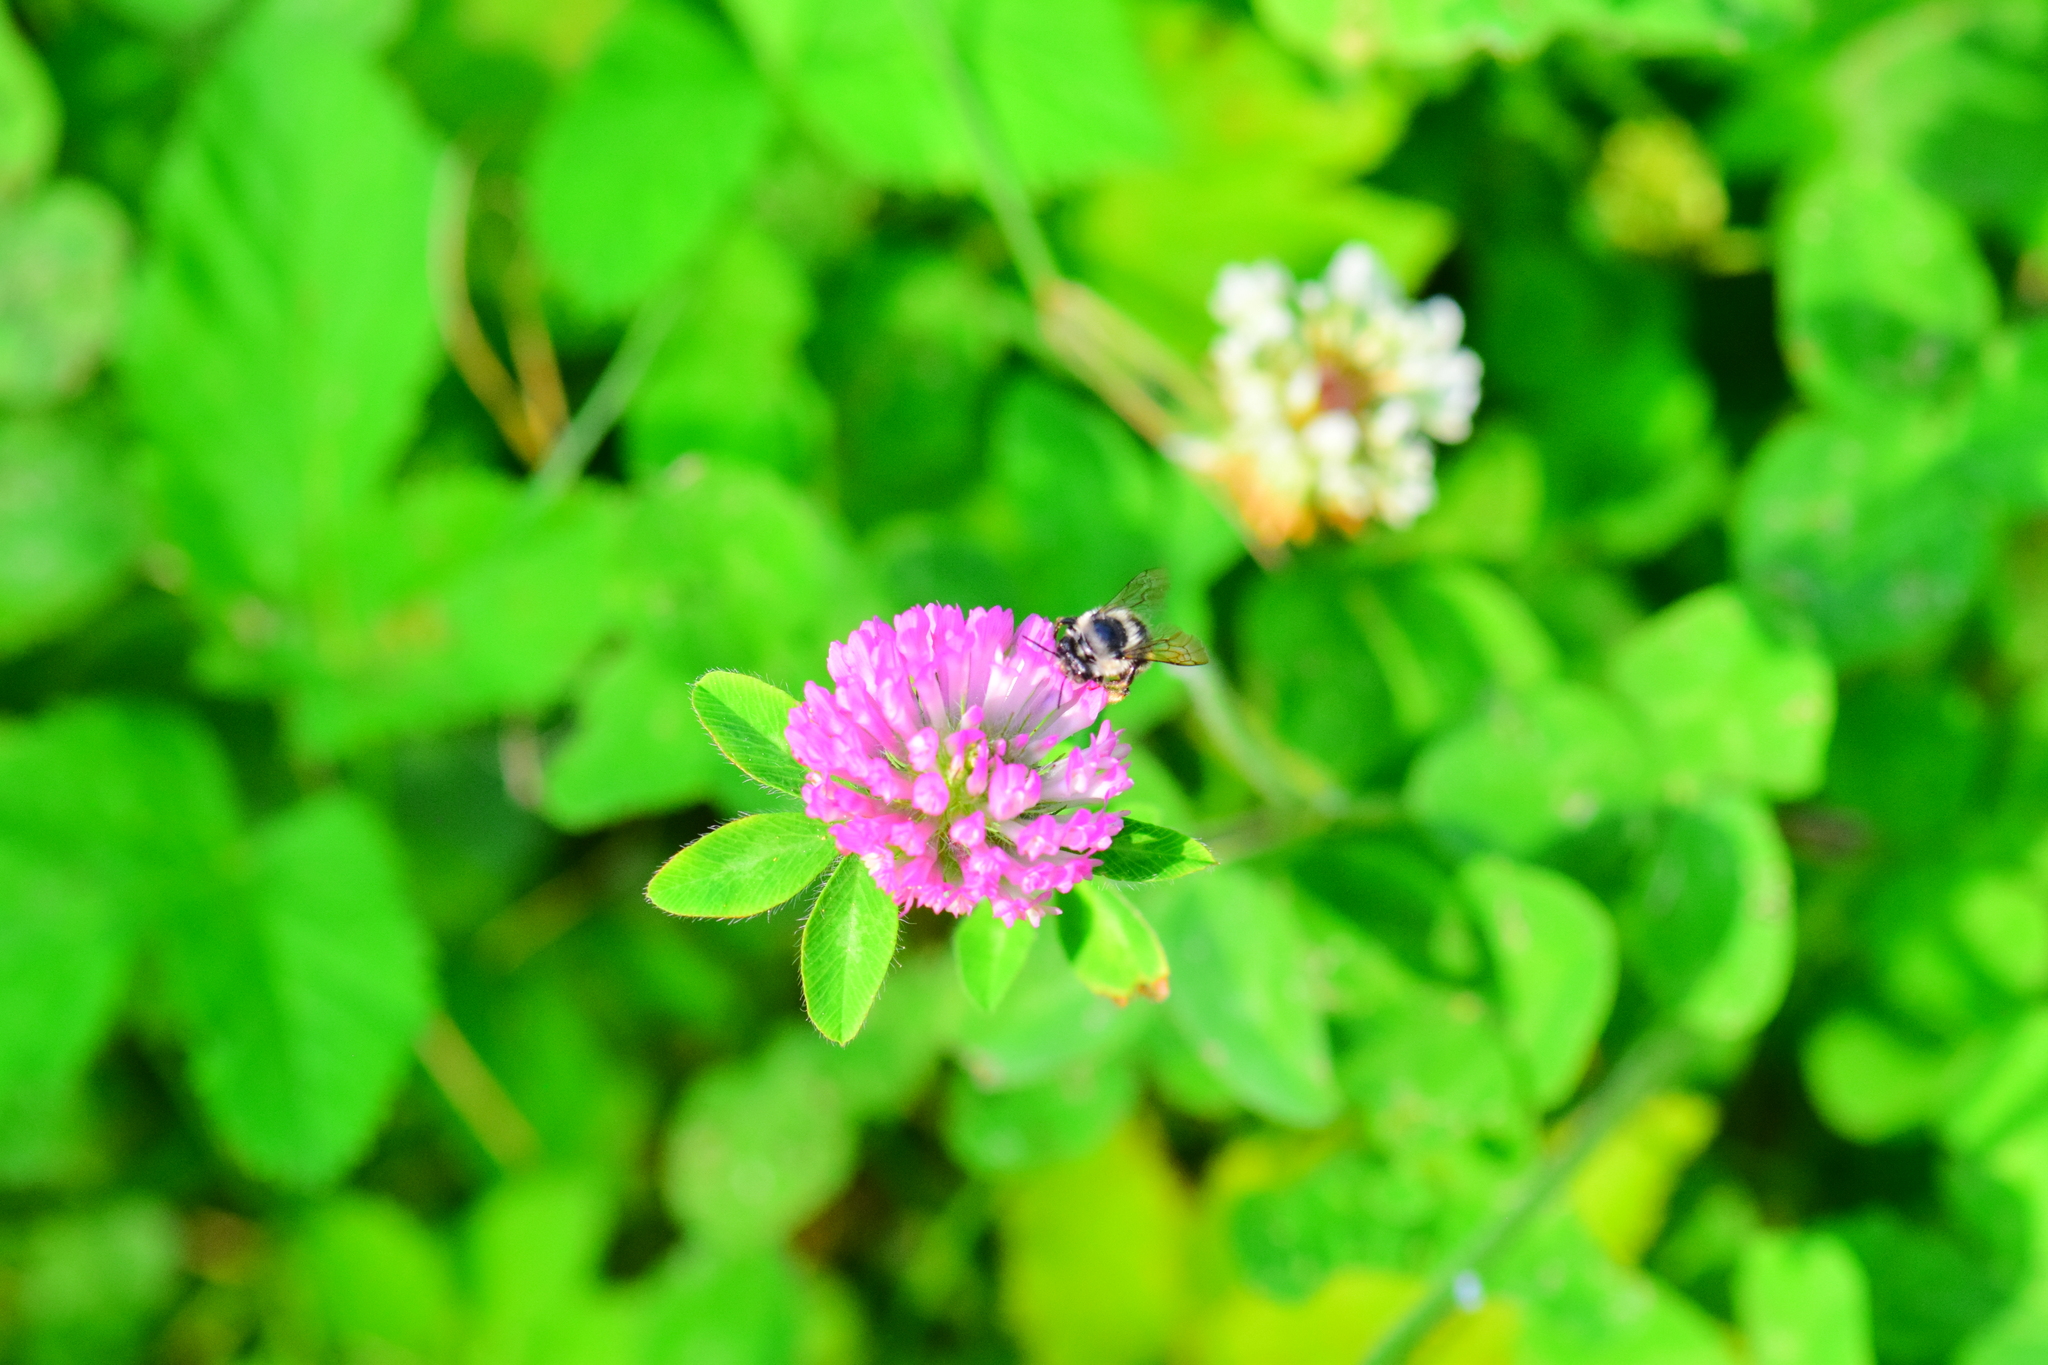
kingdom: Animalia
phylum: Arthropoda
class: Insecta
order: Hymenoptera
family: Apidae
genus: Anthophora
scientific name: Anthophora terminalis
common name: Orange-tipped wood-digger bee
